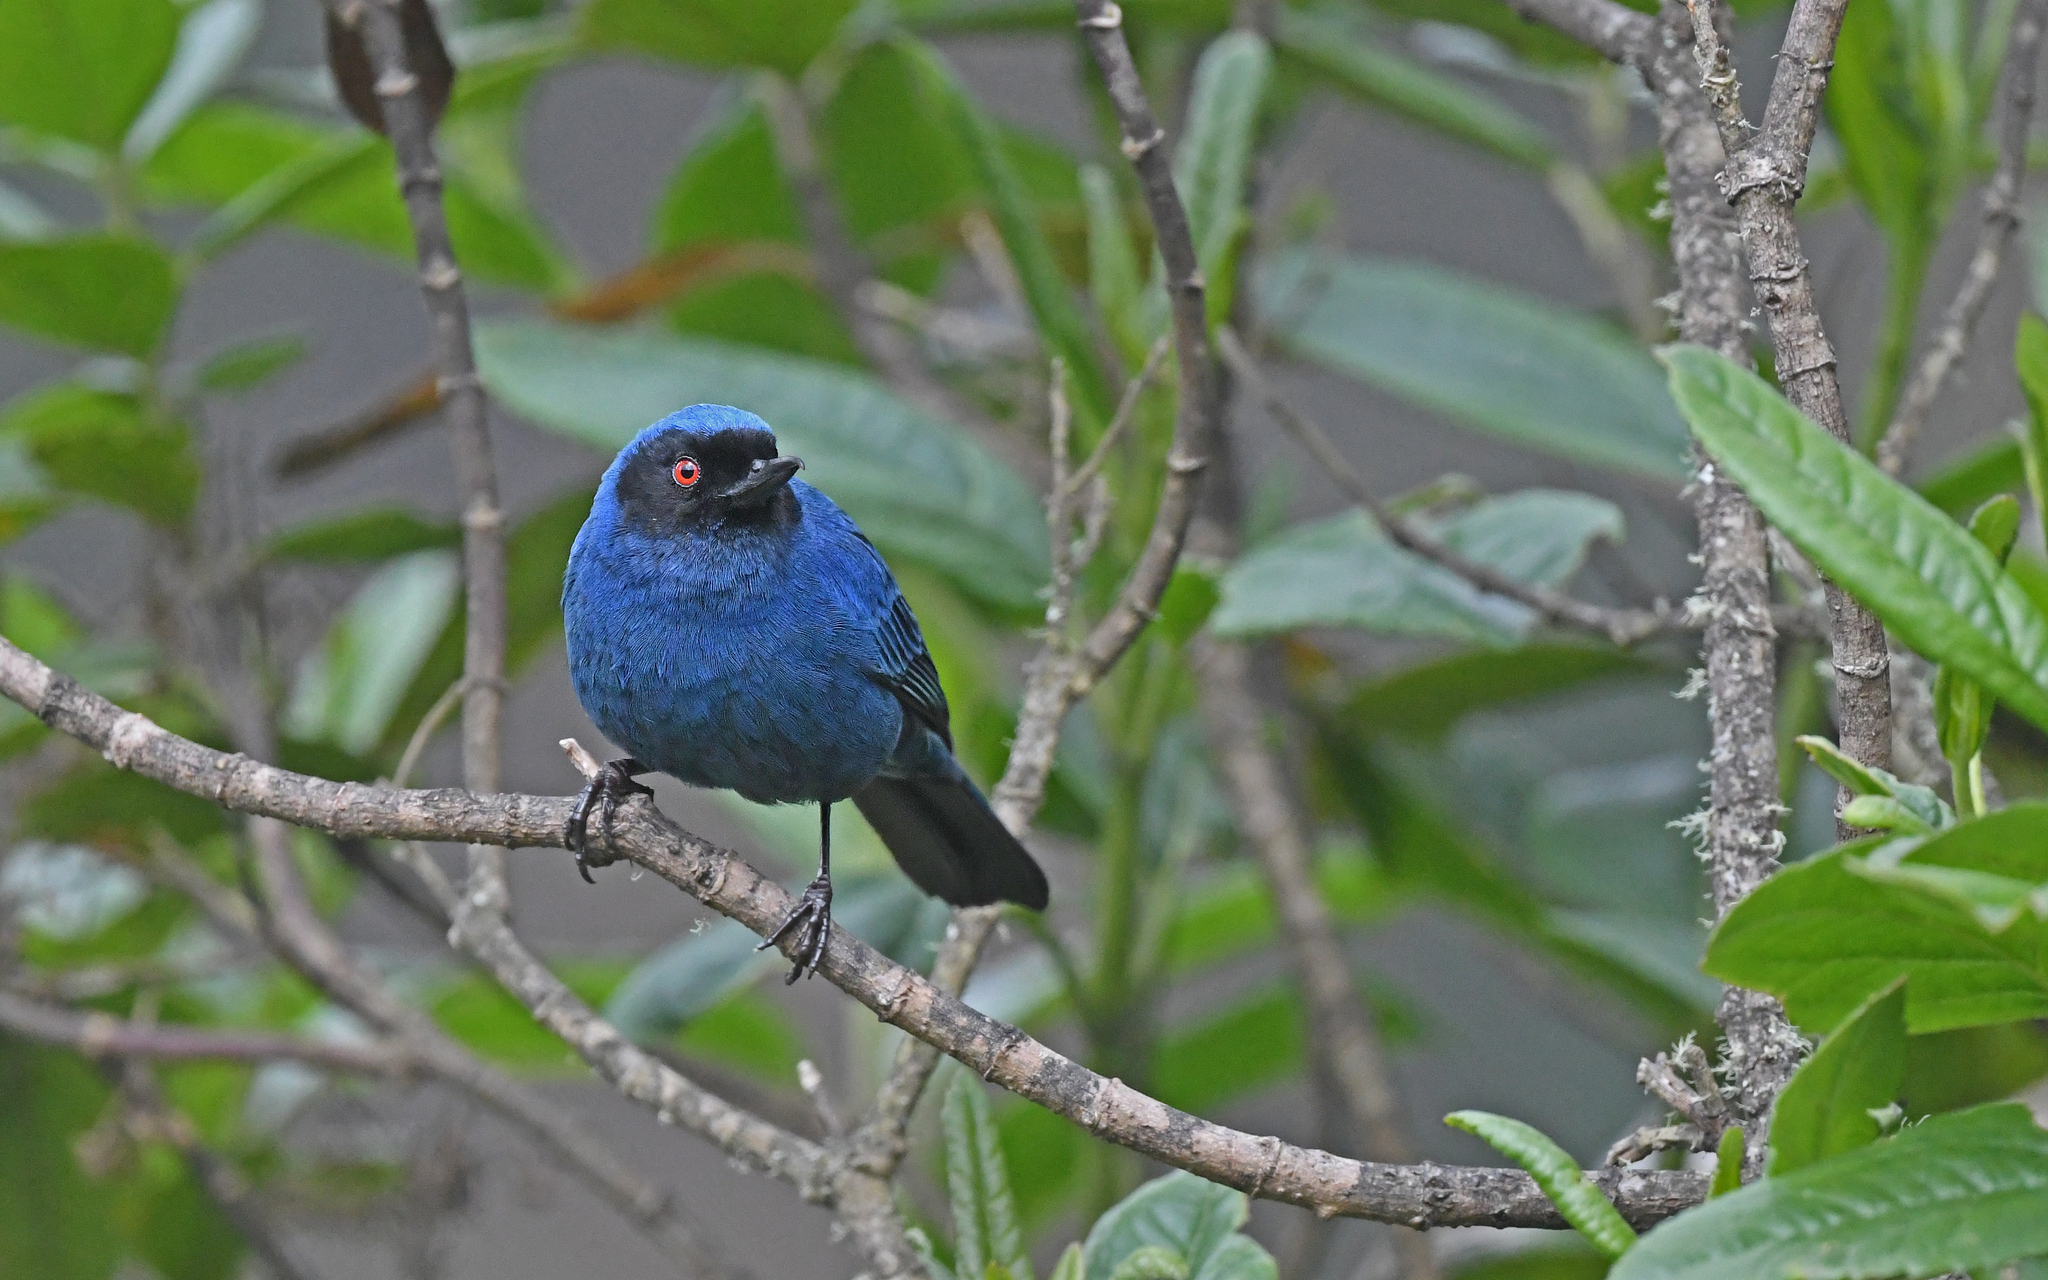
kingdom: Animalia
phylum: Chordata
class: Aves
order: Passeriformes
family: Thraupidae
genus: Diglossa
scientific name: Diglossa cyanea
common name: Masked flowerpiercer
